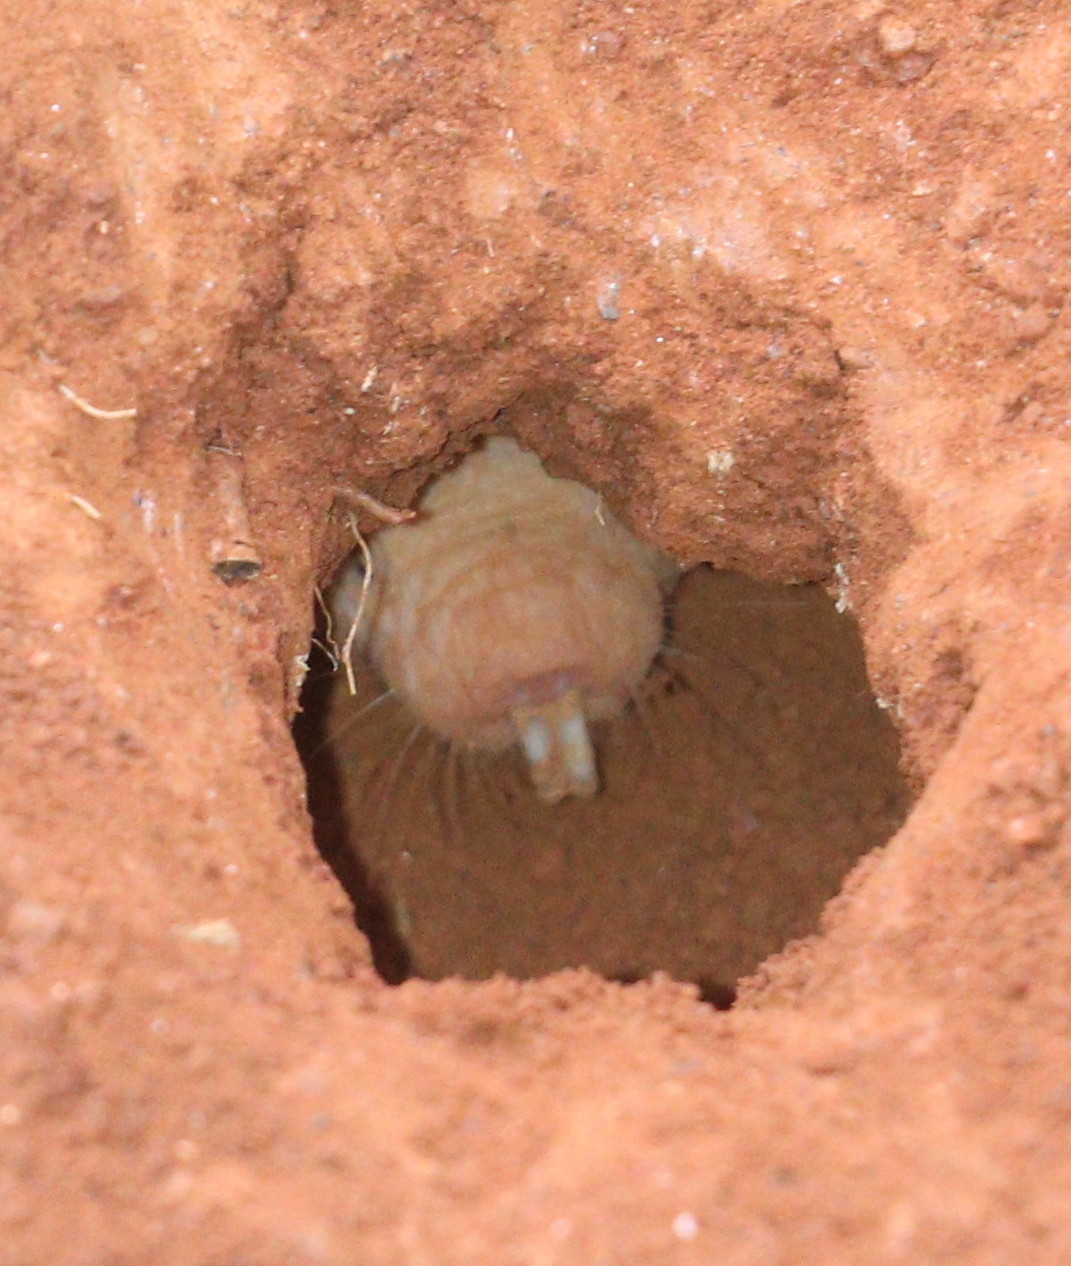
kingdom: Animalia
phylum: Chordata
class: Mammalia
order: Rodentia
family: Bathyergidae
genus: Heterocephalus
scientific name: Heterocephalus glaber
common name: Naked mole rat
